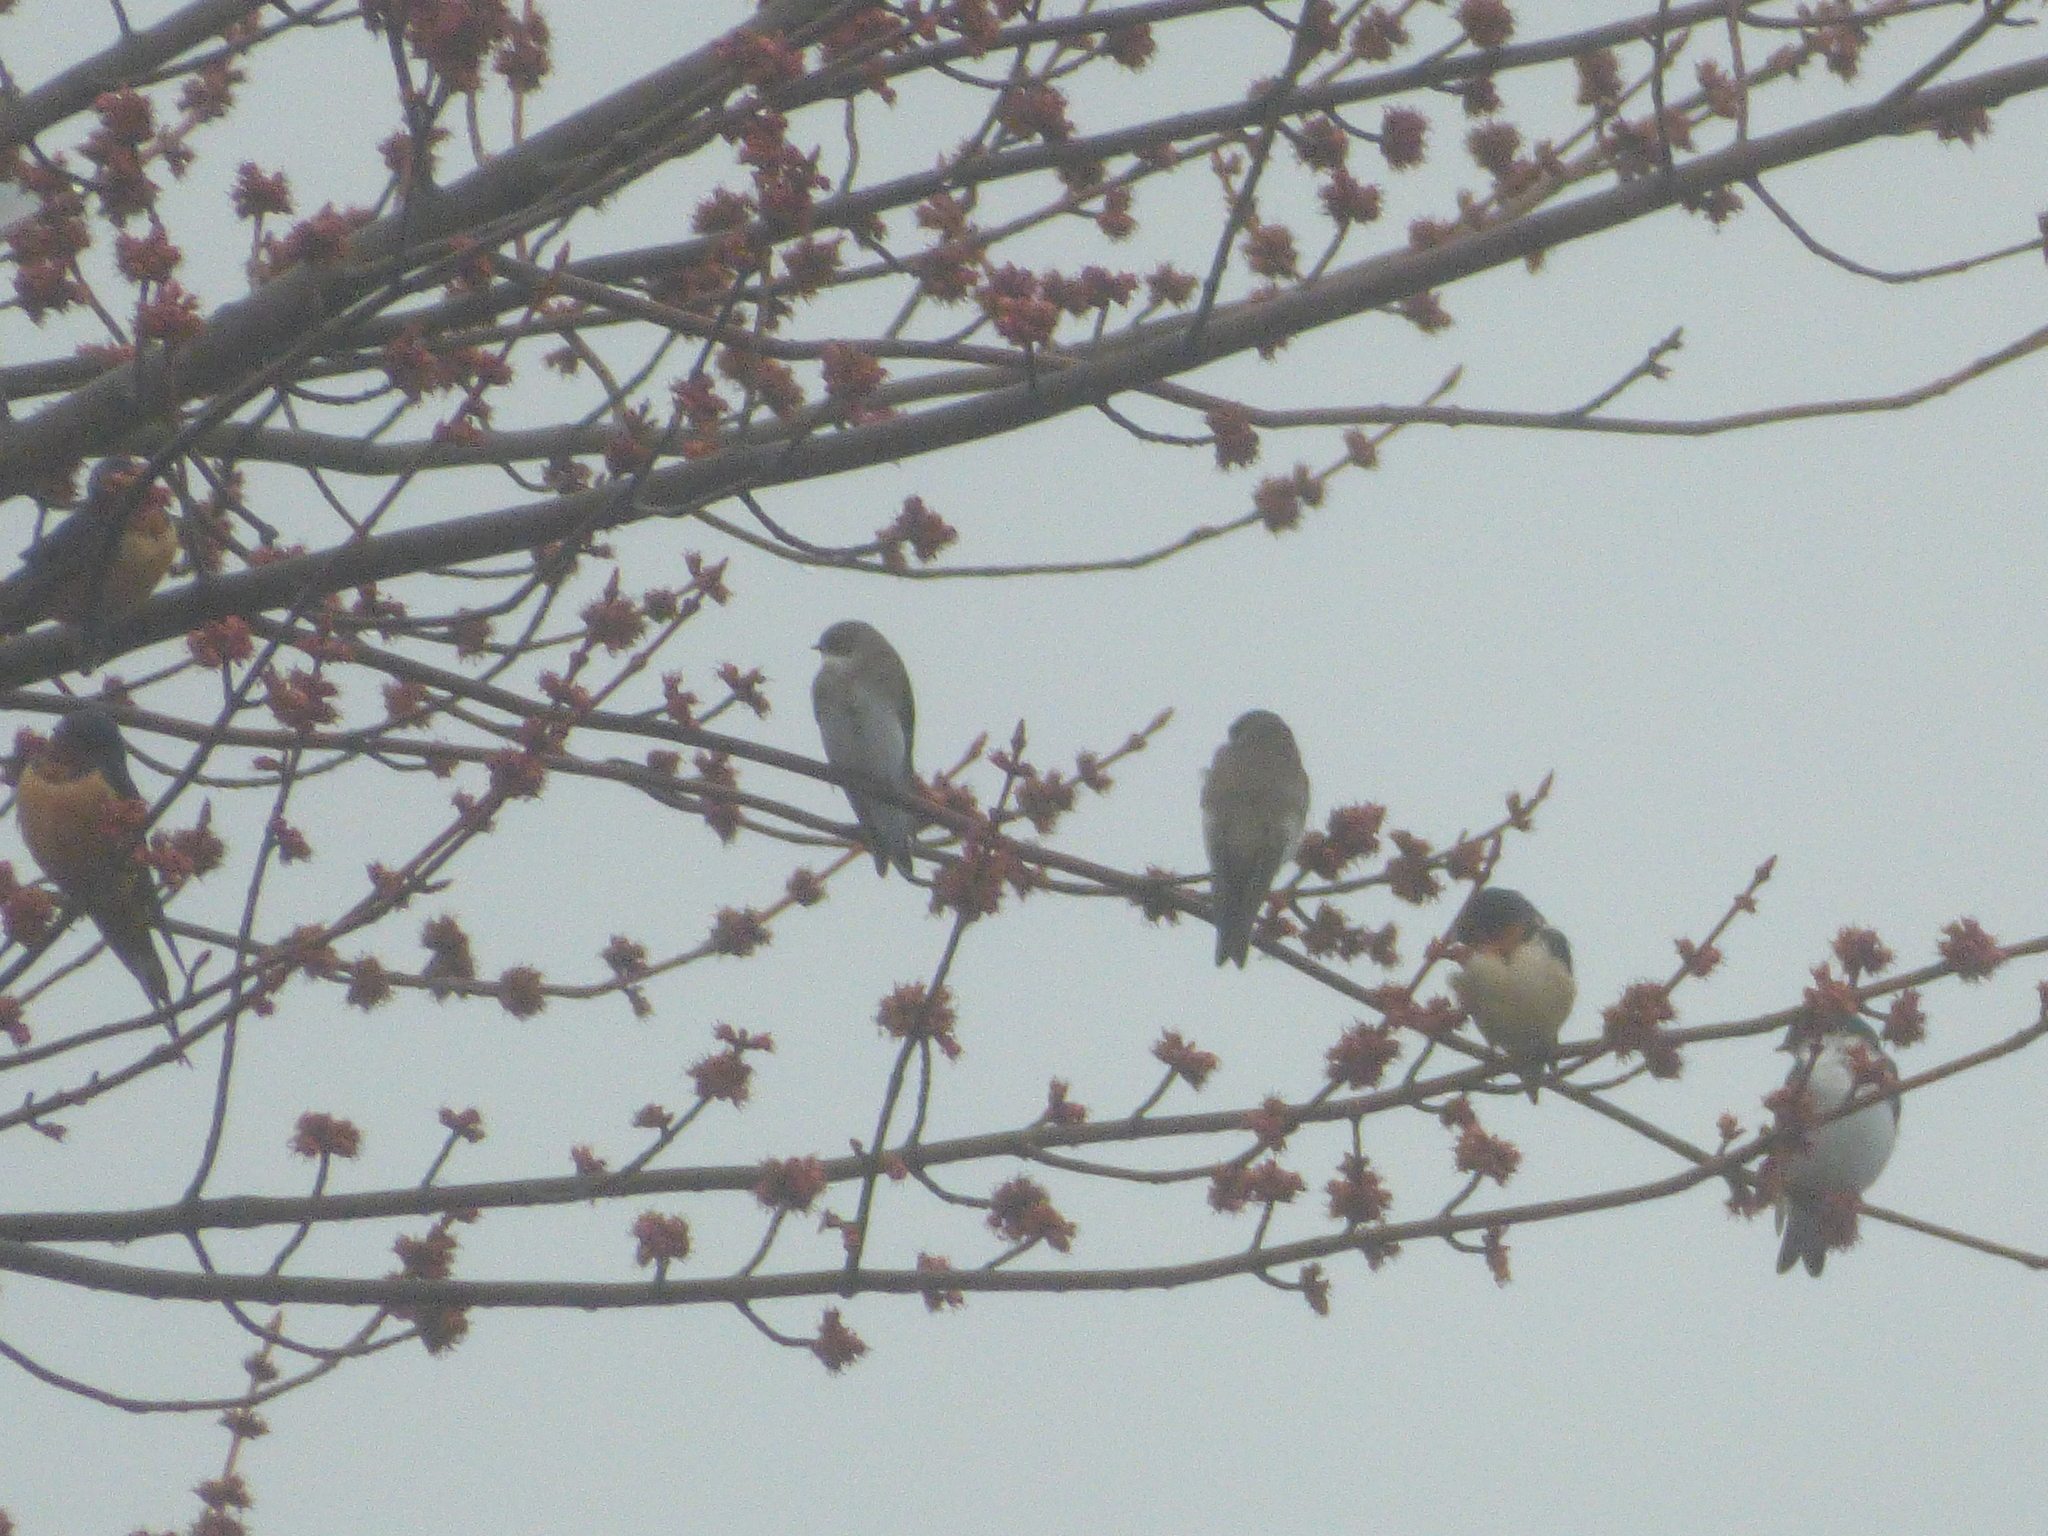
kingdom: Animalia
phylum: Chordata
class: Aves
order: Passeriformes
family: Hirundinidae
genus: Riparia
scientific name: Riparia riparia
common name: Sand martin
